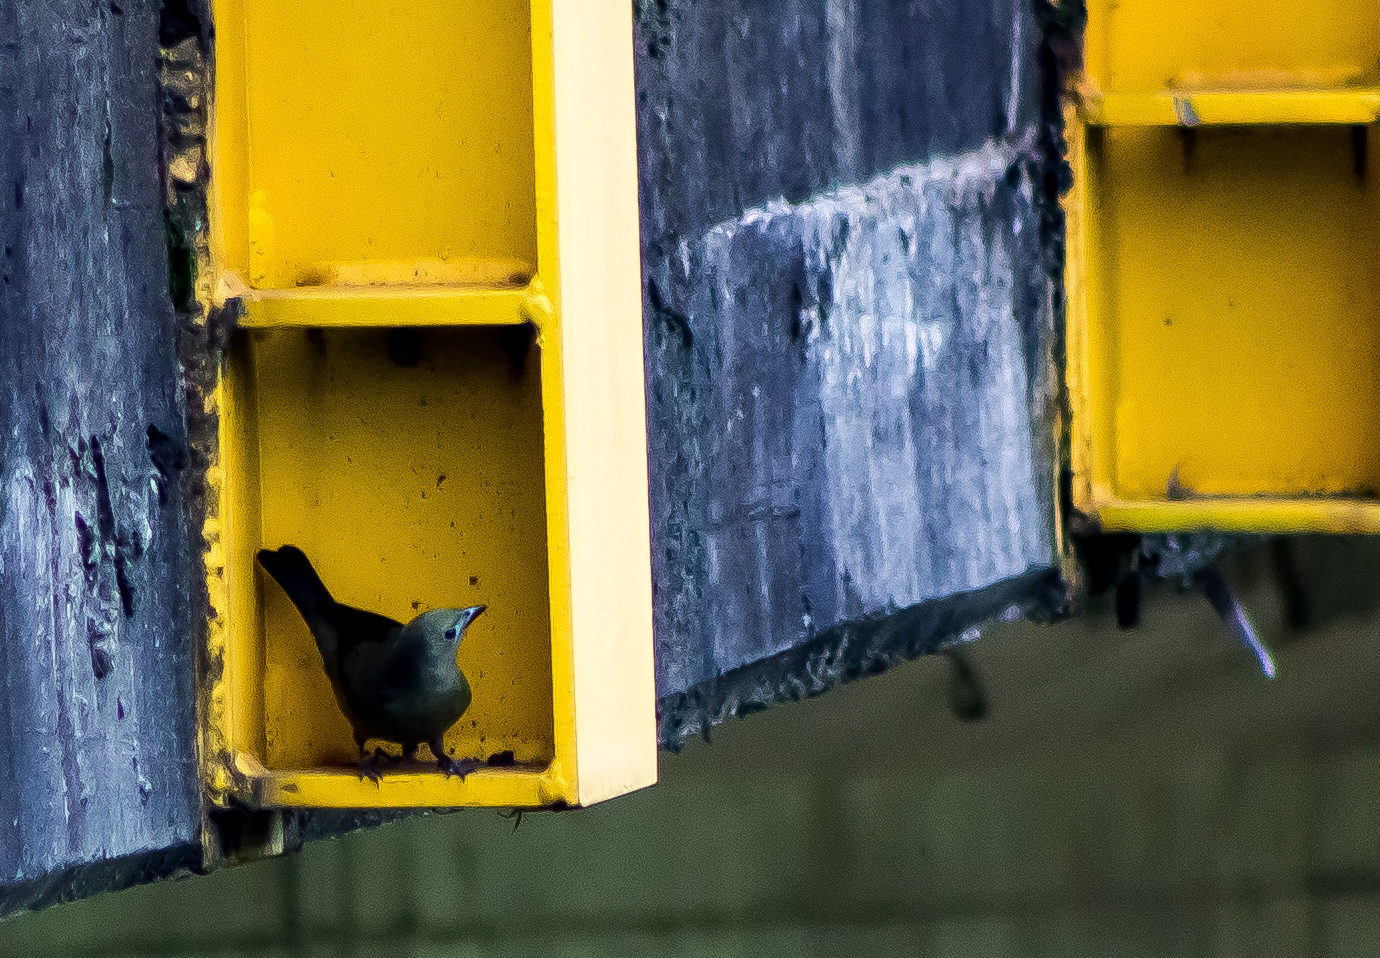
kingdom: Animalia
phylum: Chordata
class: Aves
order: Passeriformes
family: Thraupidae
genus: Thraupis
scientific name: Thraupis palmarum
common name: Palm tanager
